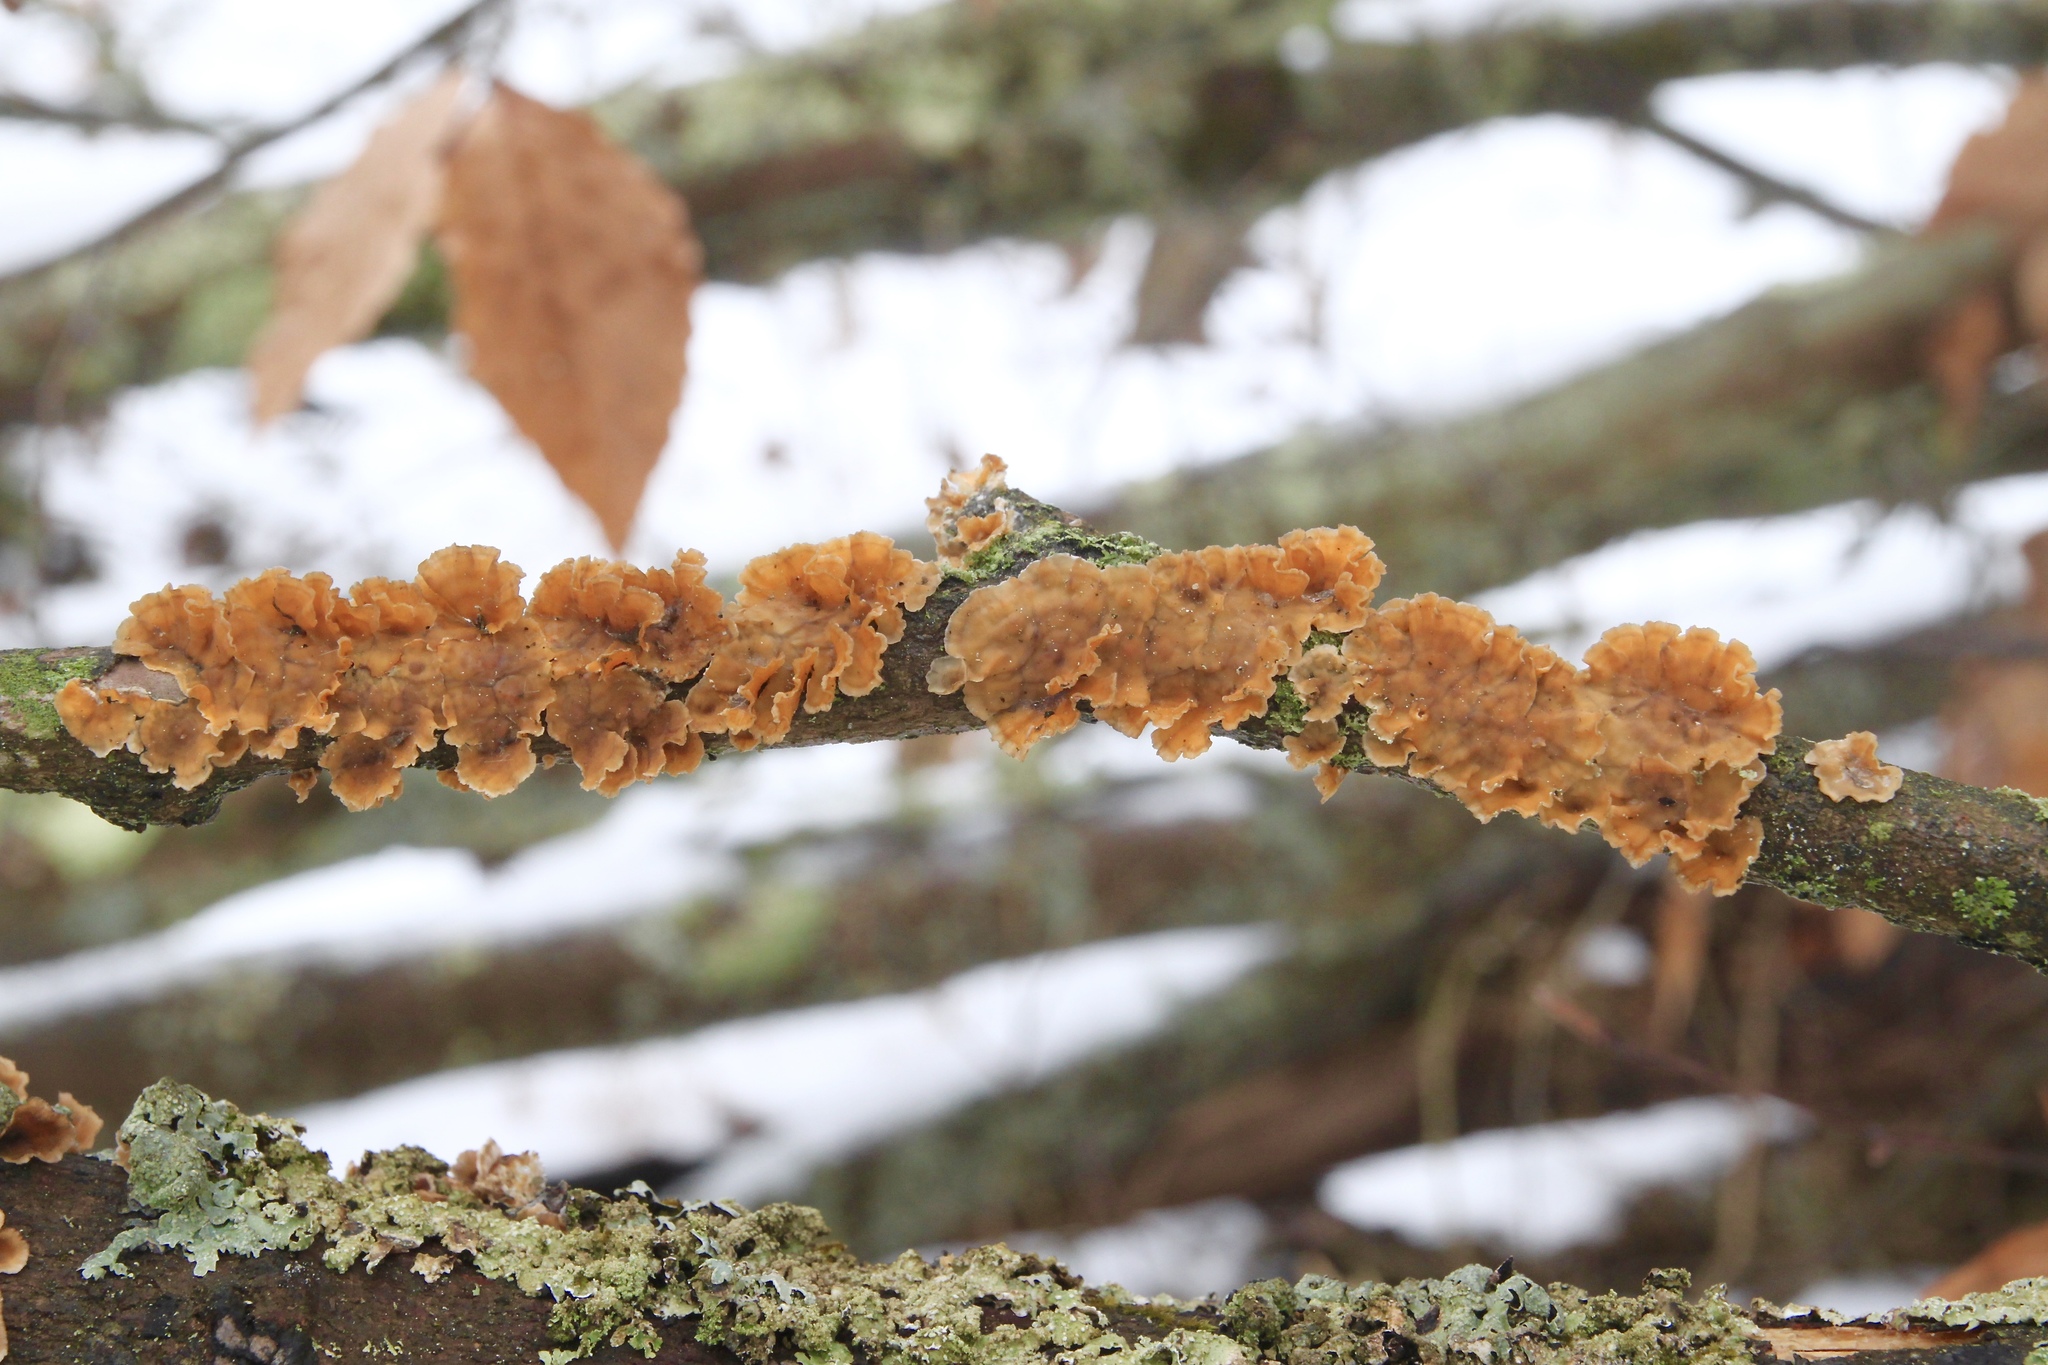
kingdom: Fungi
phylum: Basidiomycota
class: Agaricomycetes
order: Russulales
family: Stereaceae
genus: Stereum
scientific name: Stereum complicatum
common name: Crowded parchment
